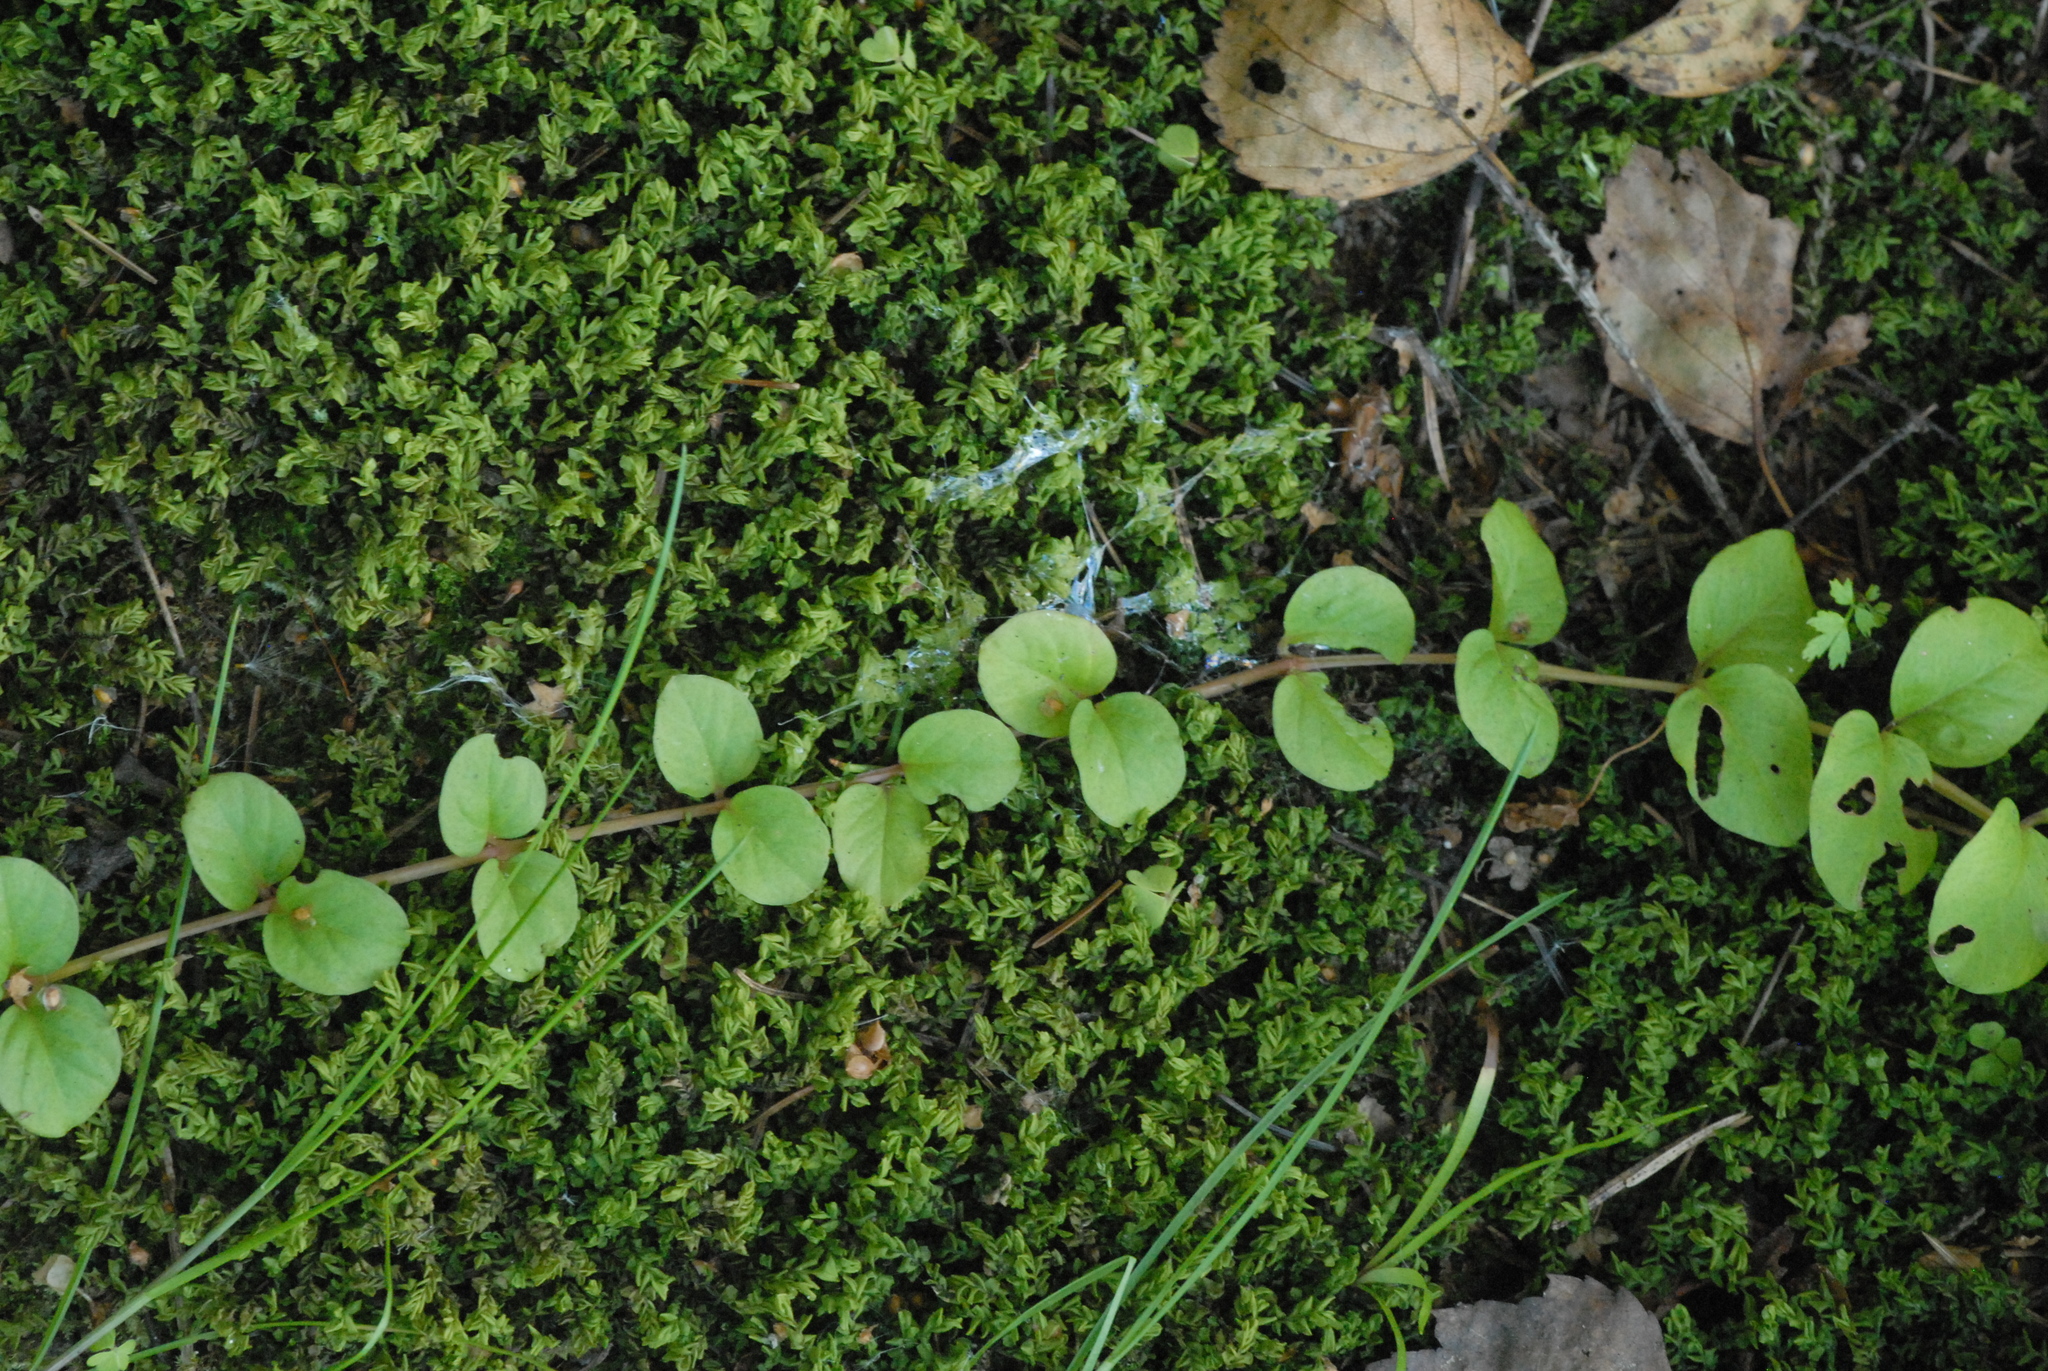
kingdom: Plantae
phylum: Tracheophyta
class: Magnoliopsida
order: Ericales
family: Primulaceae
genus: Lysimachia
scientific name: Lysimachia nummularia
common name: Moneywort
